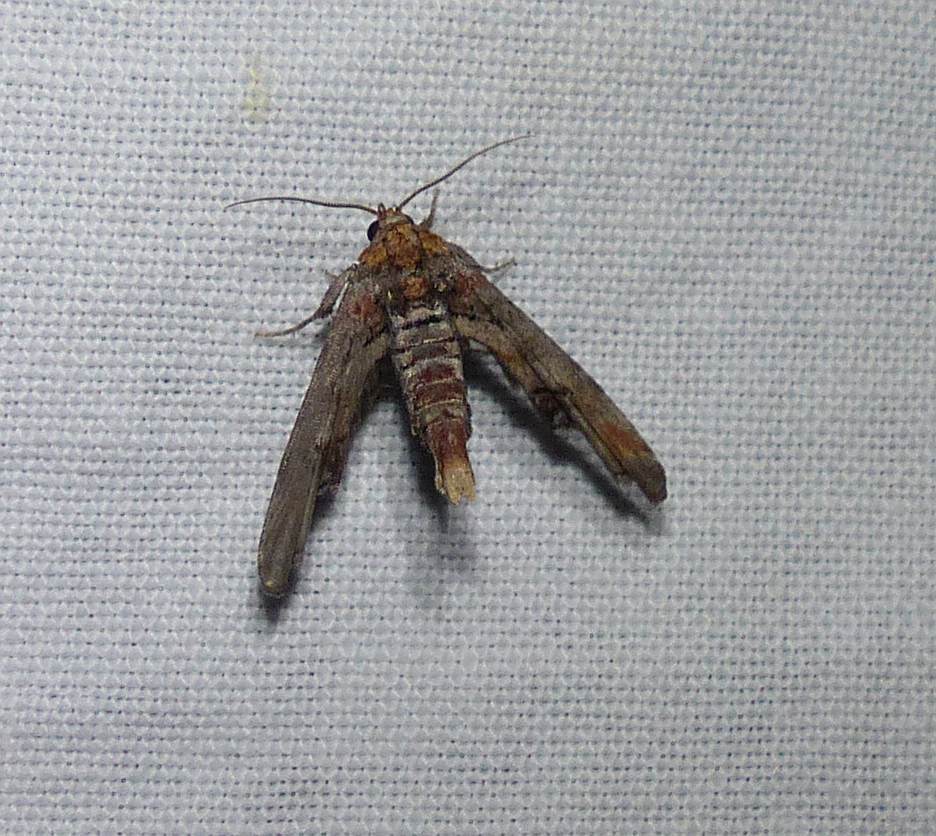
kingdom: Animalia
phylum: Arthropoda
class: Insecta
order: Lepidoptera
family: Euteliidae
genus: Marathyssa
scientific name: Marathyssa inficita
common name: Dark marathyssa moth
